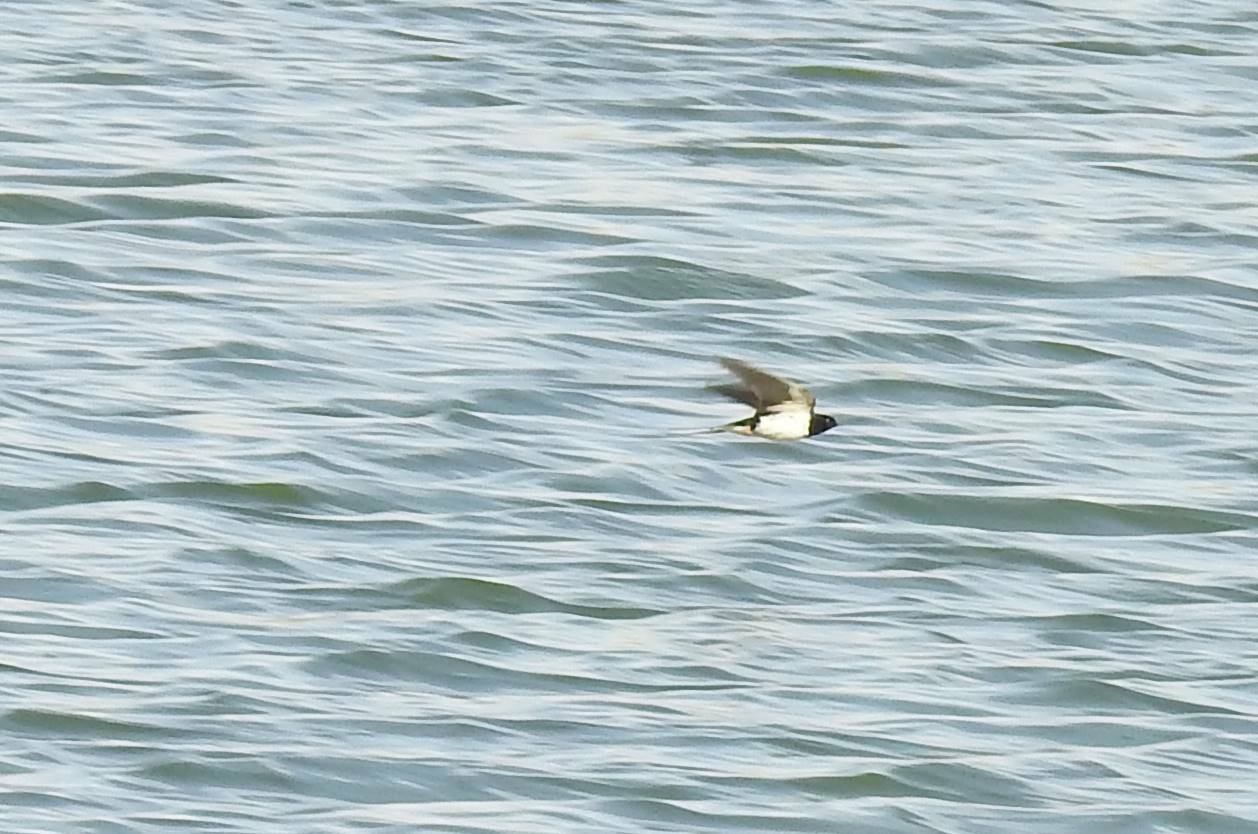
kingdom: Animalia
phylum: Chordata
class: Aves
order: Passeriformes
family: Hirundinidae
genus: Hirundo
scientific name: Hirundo rustica
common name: Barn swallow
